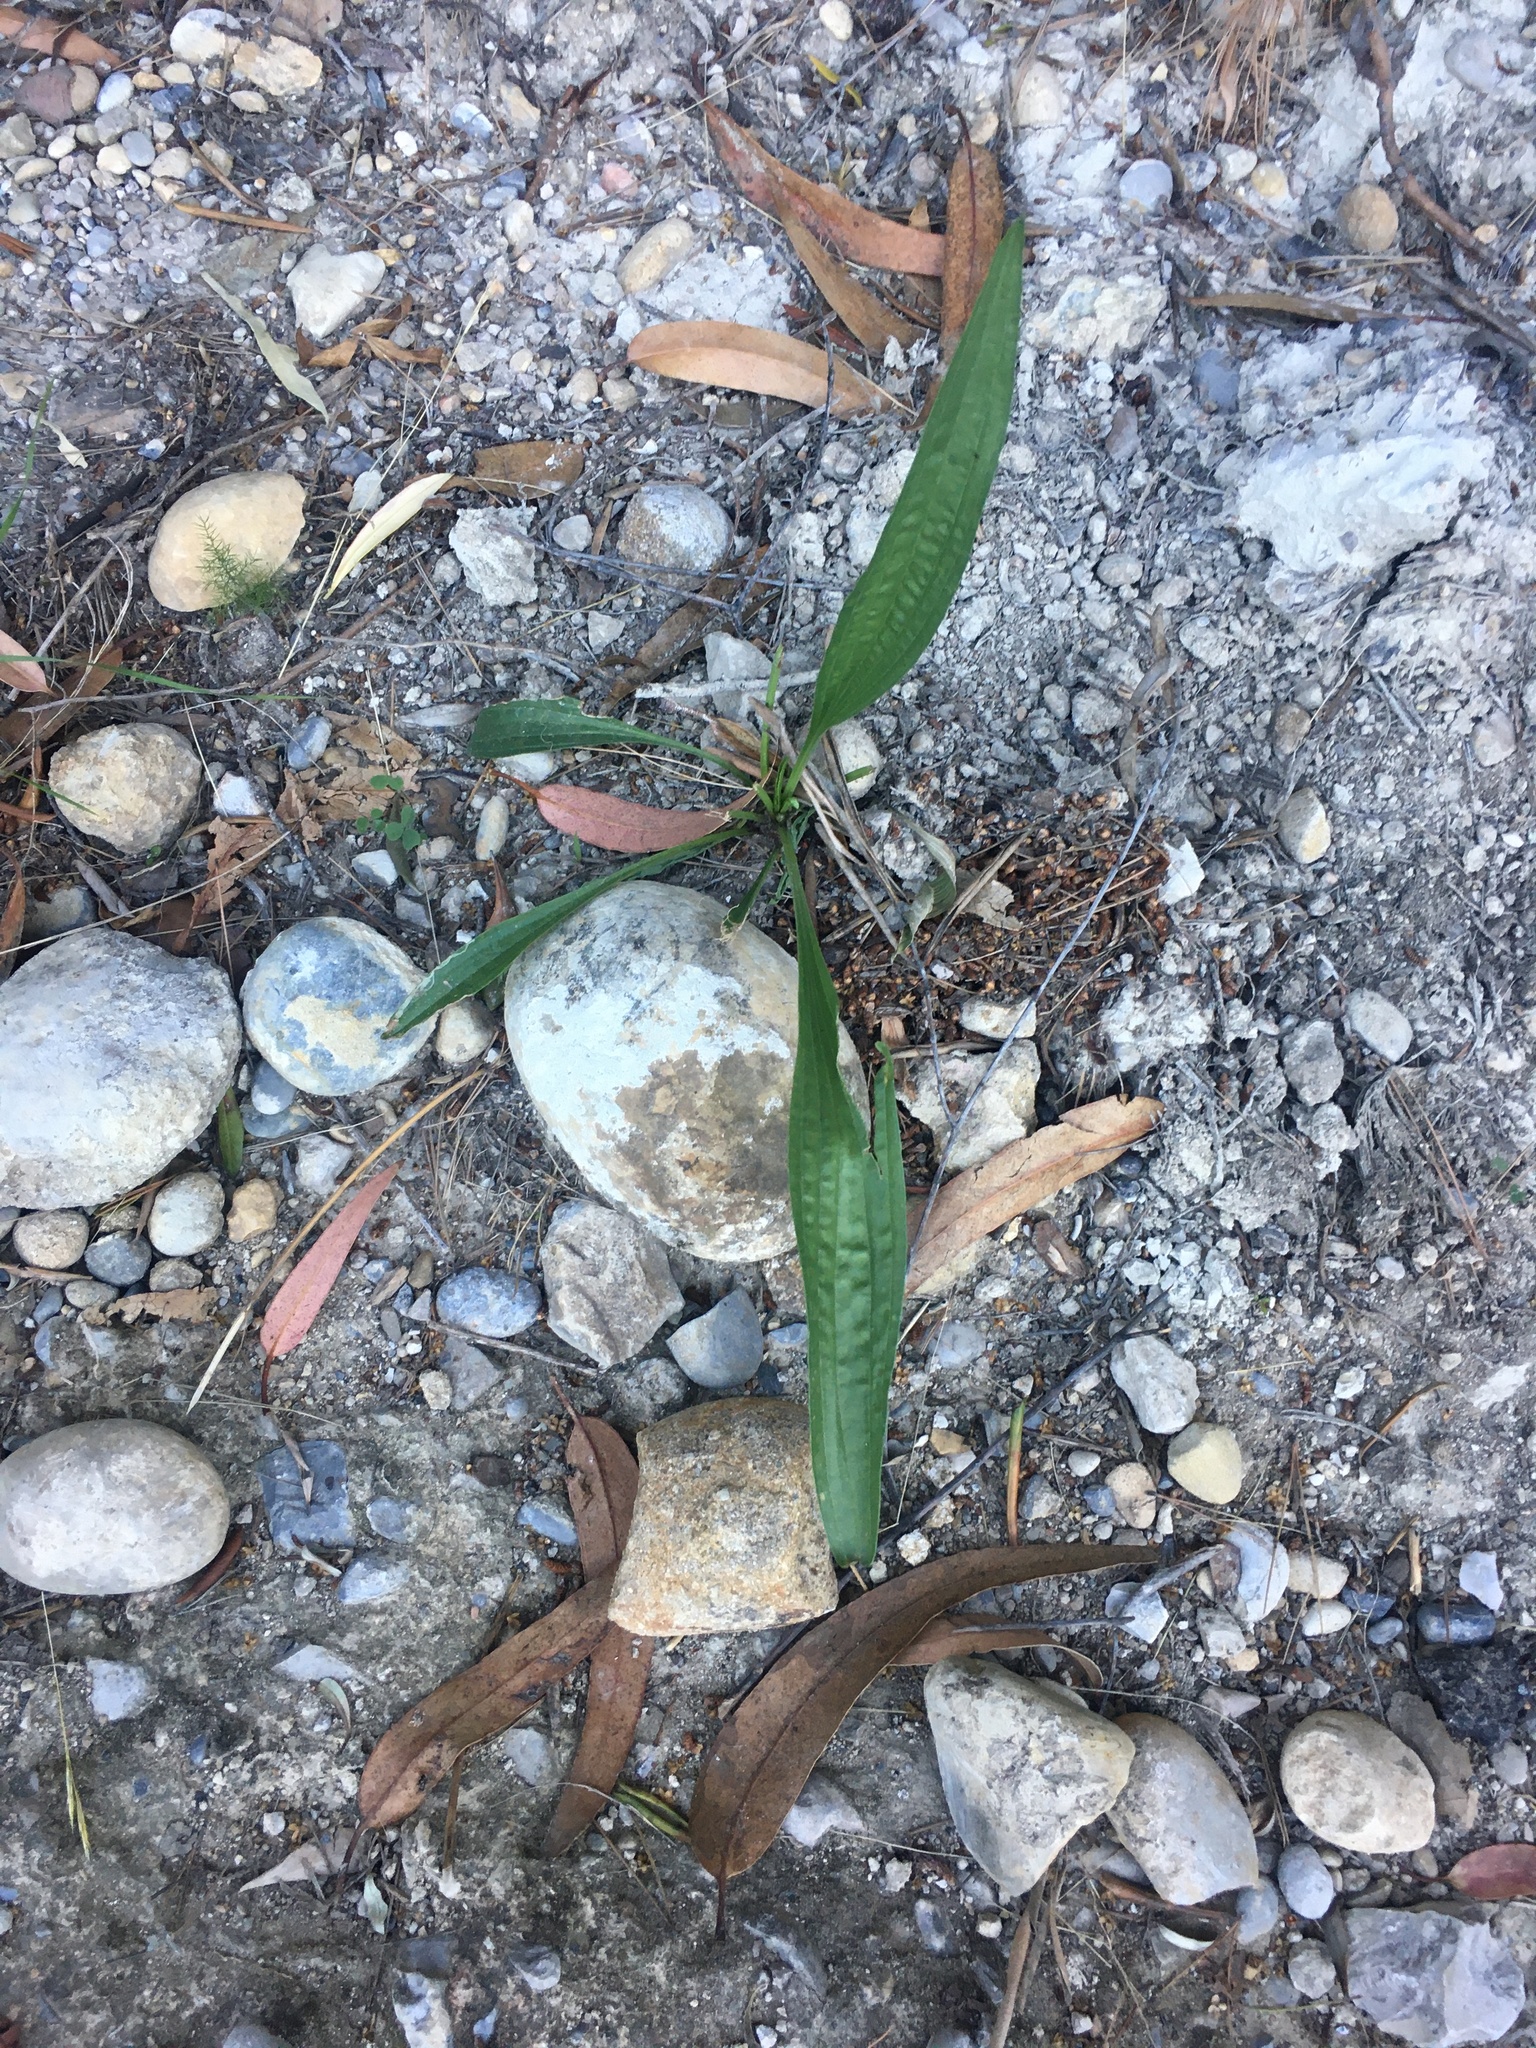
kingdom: Plantae
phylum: Tracheophyta
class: Magnoliopsida
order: Lamiales
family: Plantaginaceae
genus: Plantago
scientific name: Plantago lanceolata
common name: Ribwort plantain
